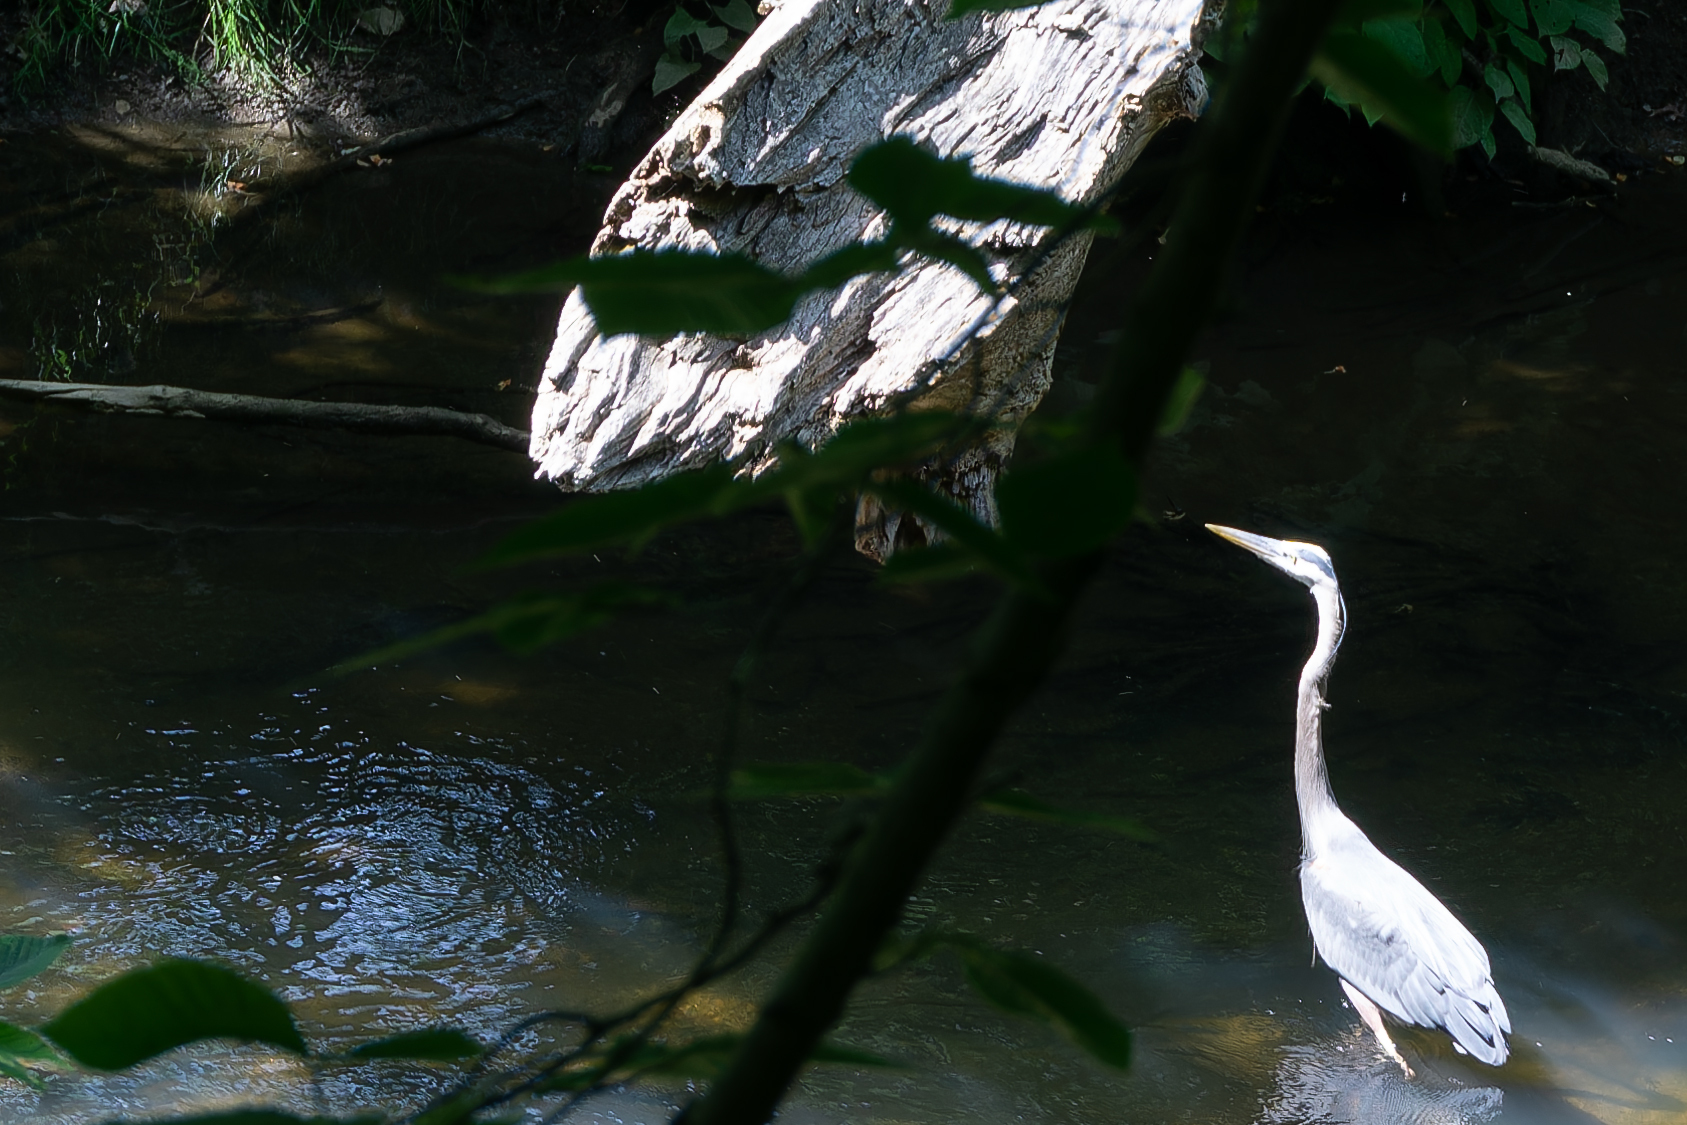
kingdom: Animalia
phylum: Chordata
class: Aves
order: Pelecaniformes
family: Ardeidae
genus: Ardea
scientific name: Ardea herodias
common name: Great blue heron
